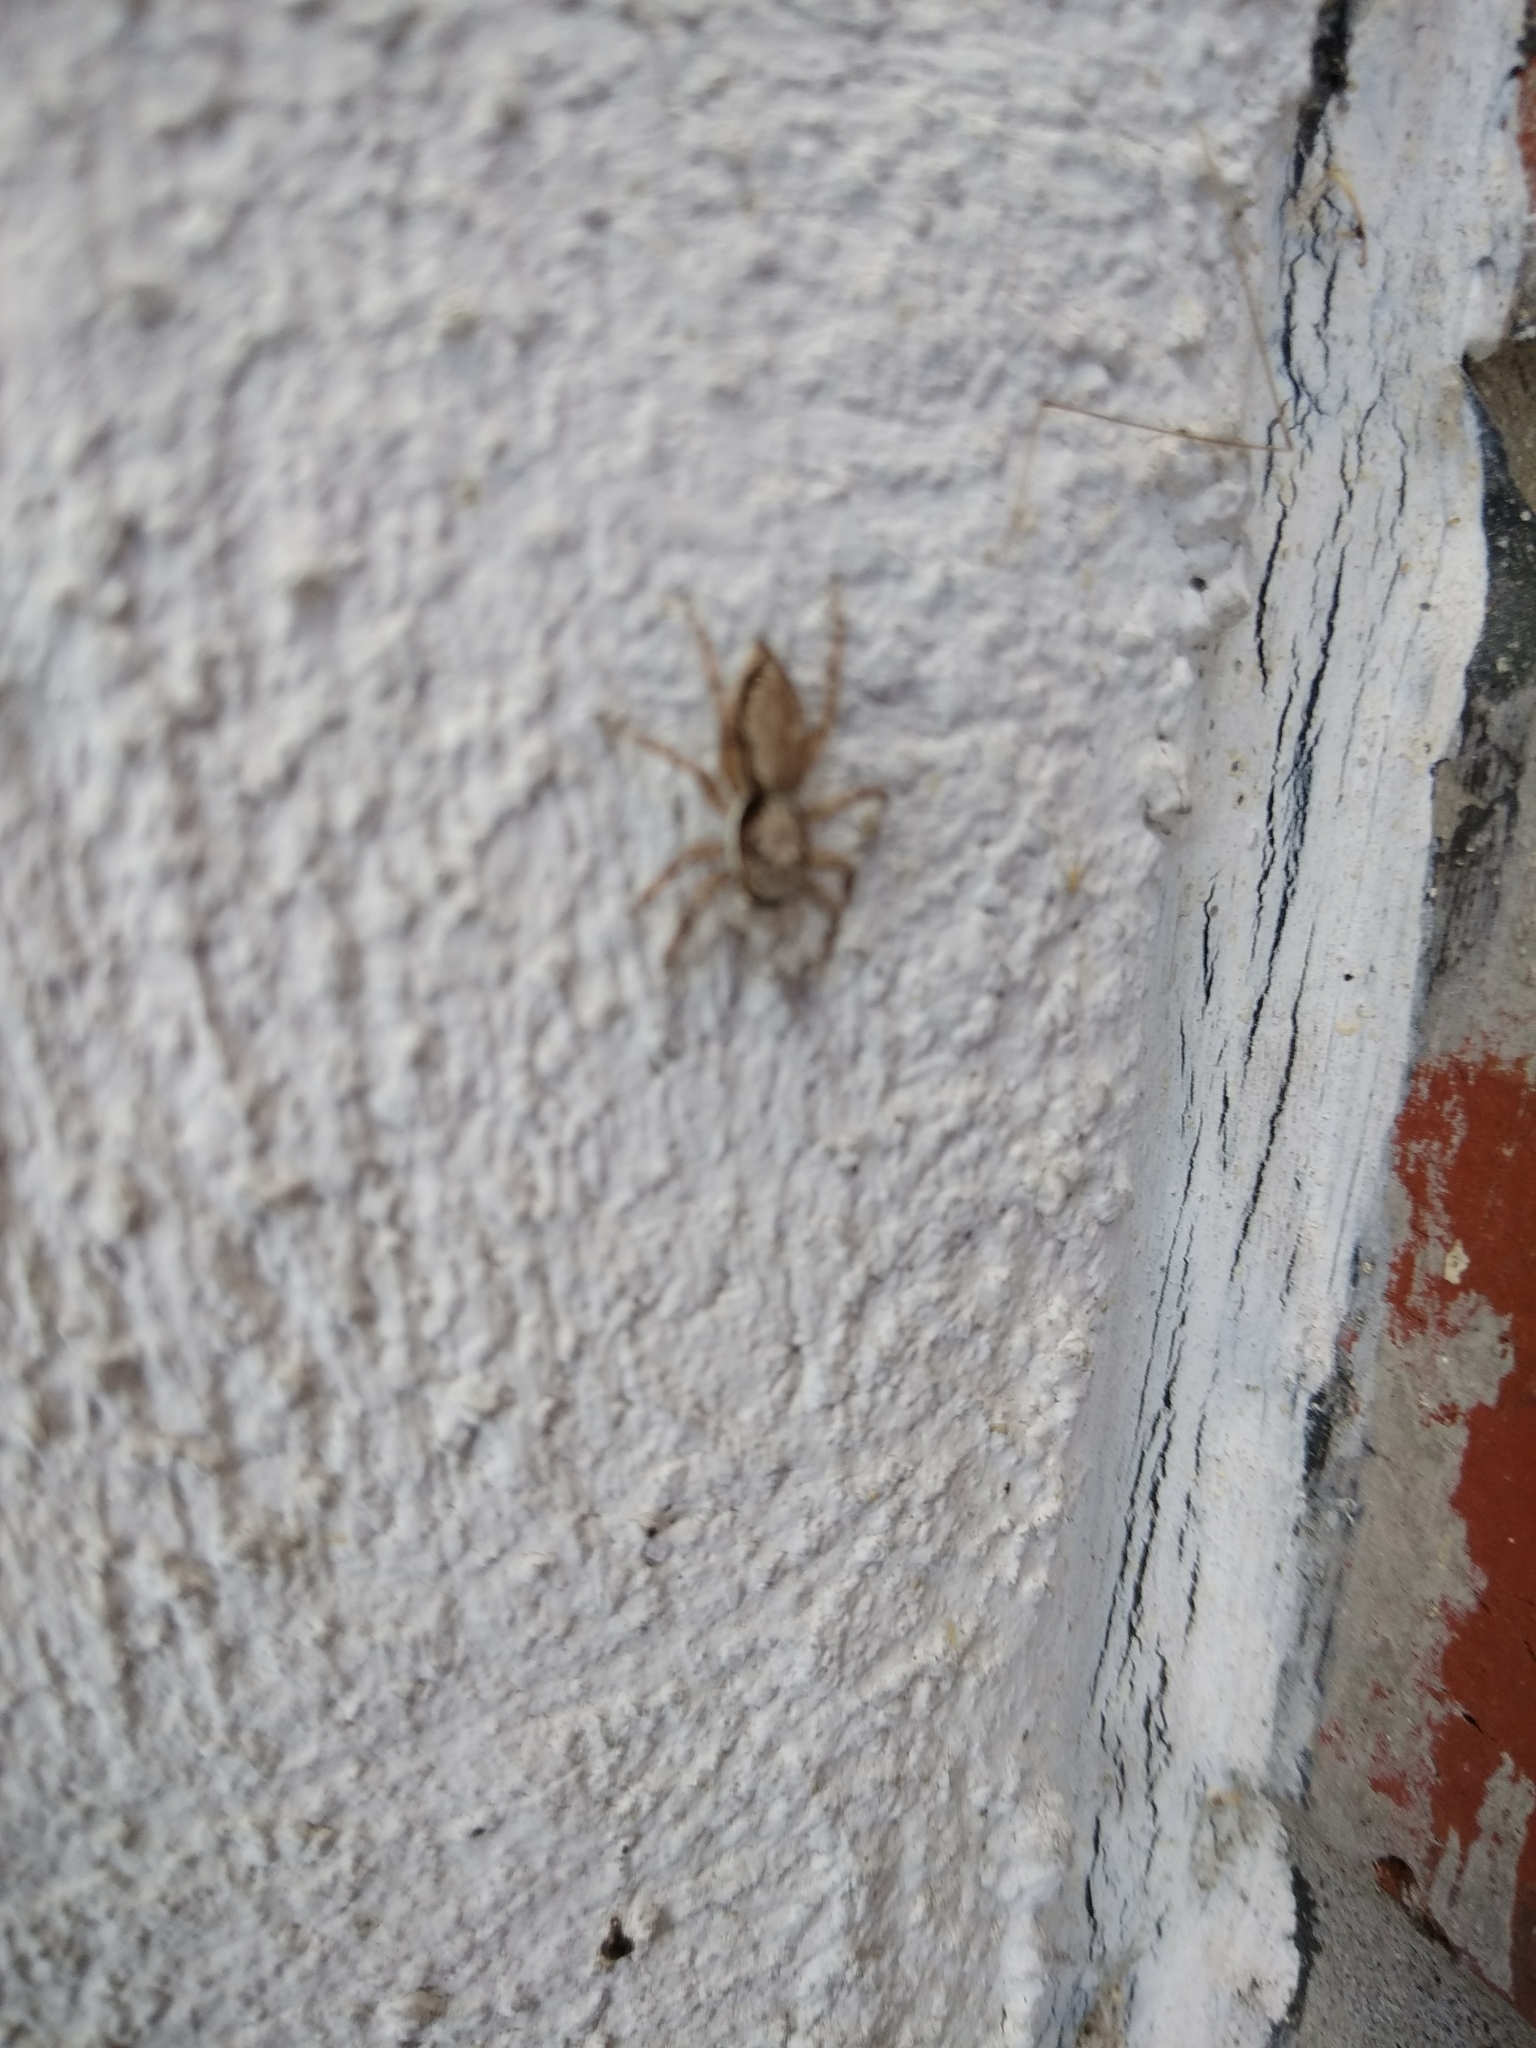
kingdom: Animalia
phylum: Arthropoda
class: Arachnida
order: Araneae
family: Salticidae
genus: Menemerus
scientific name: Menemerus bivittatus
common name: Gray wall jumper
